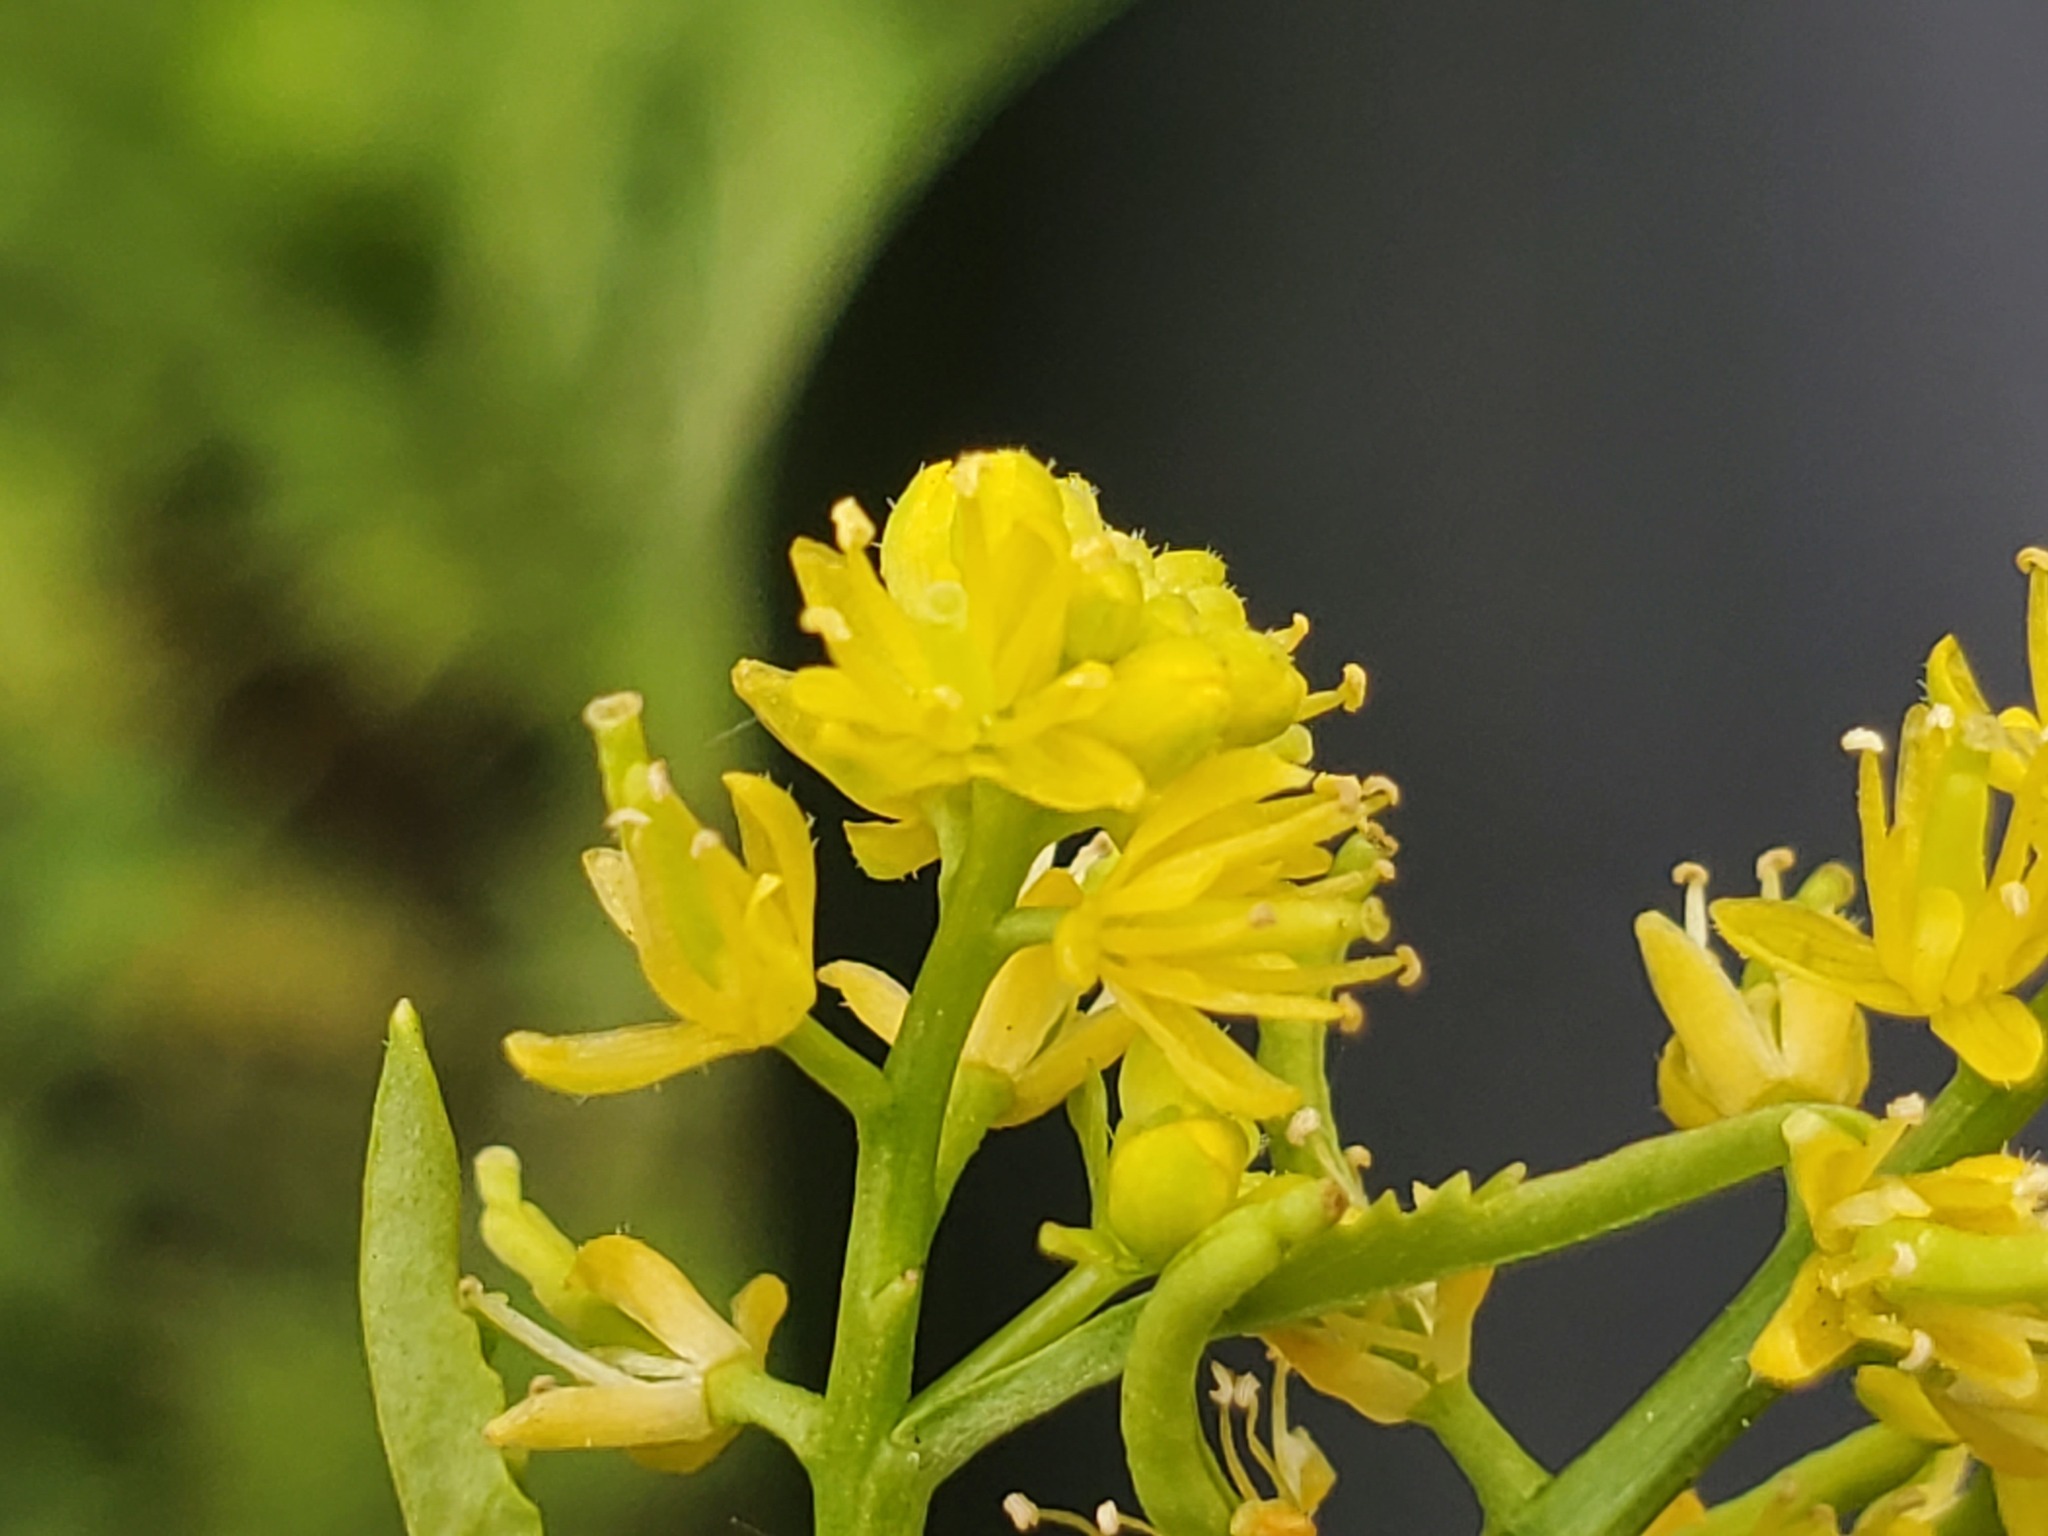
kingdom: Plantae
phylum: Tracheophyta
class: Magnoliopsida
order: Brassicales
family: Brassicaceae
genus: Rorippa
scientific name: Rorippa curvisiliqua
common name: Curve-pod yellow cress
